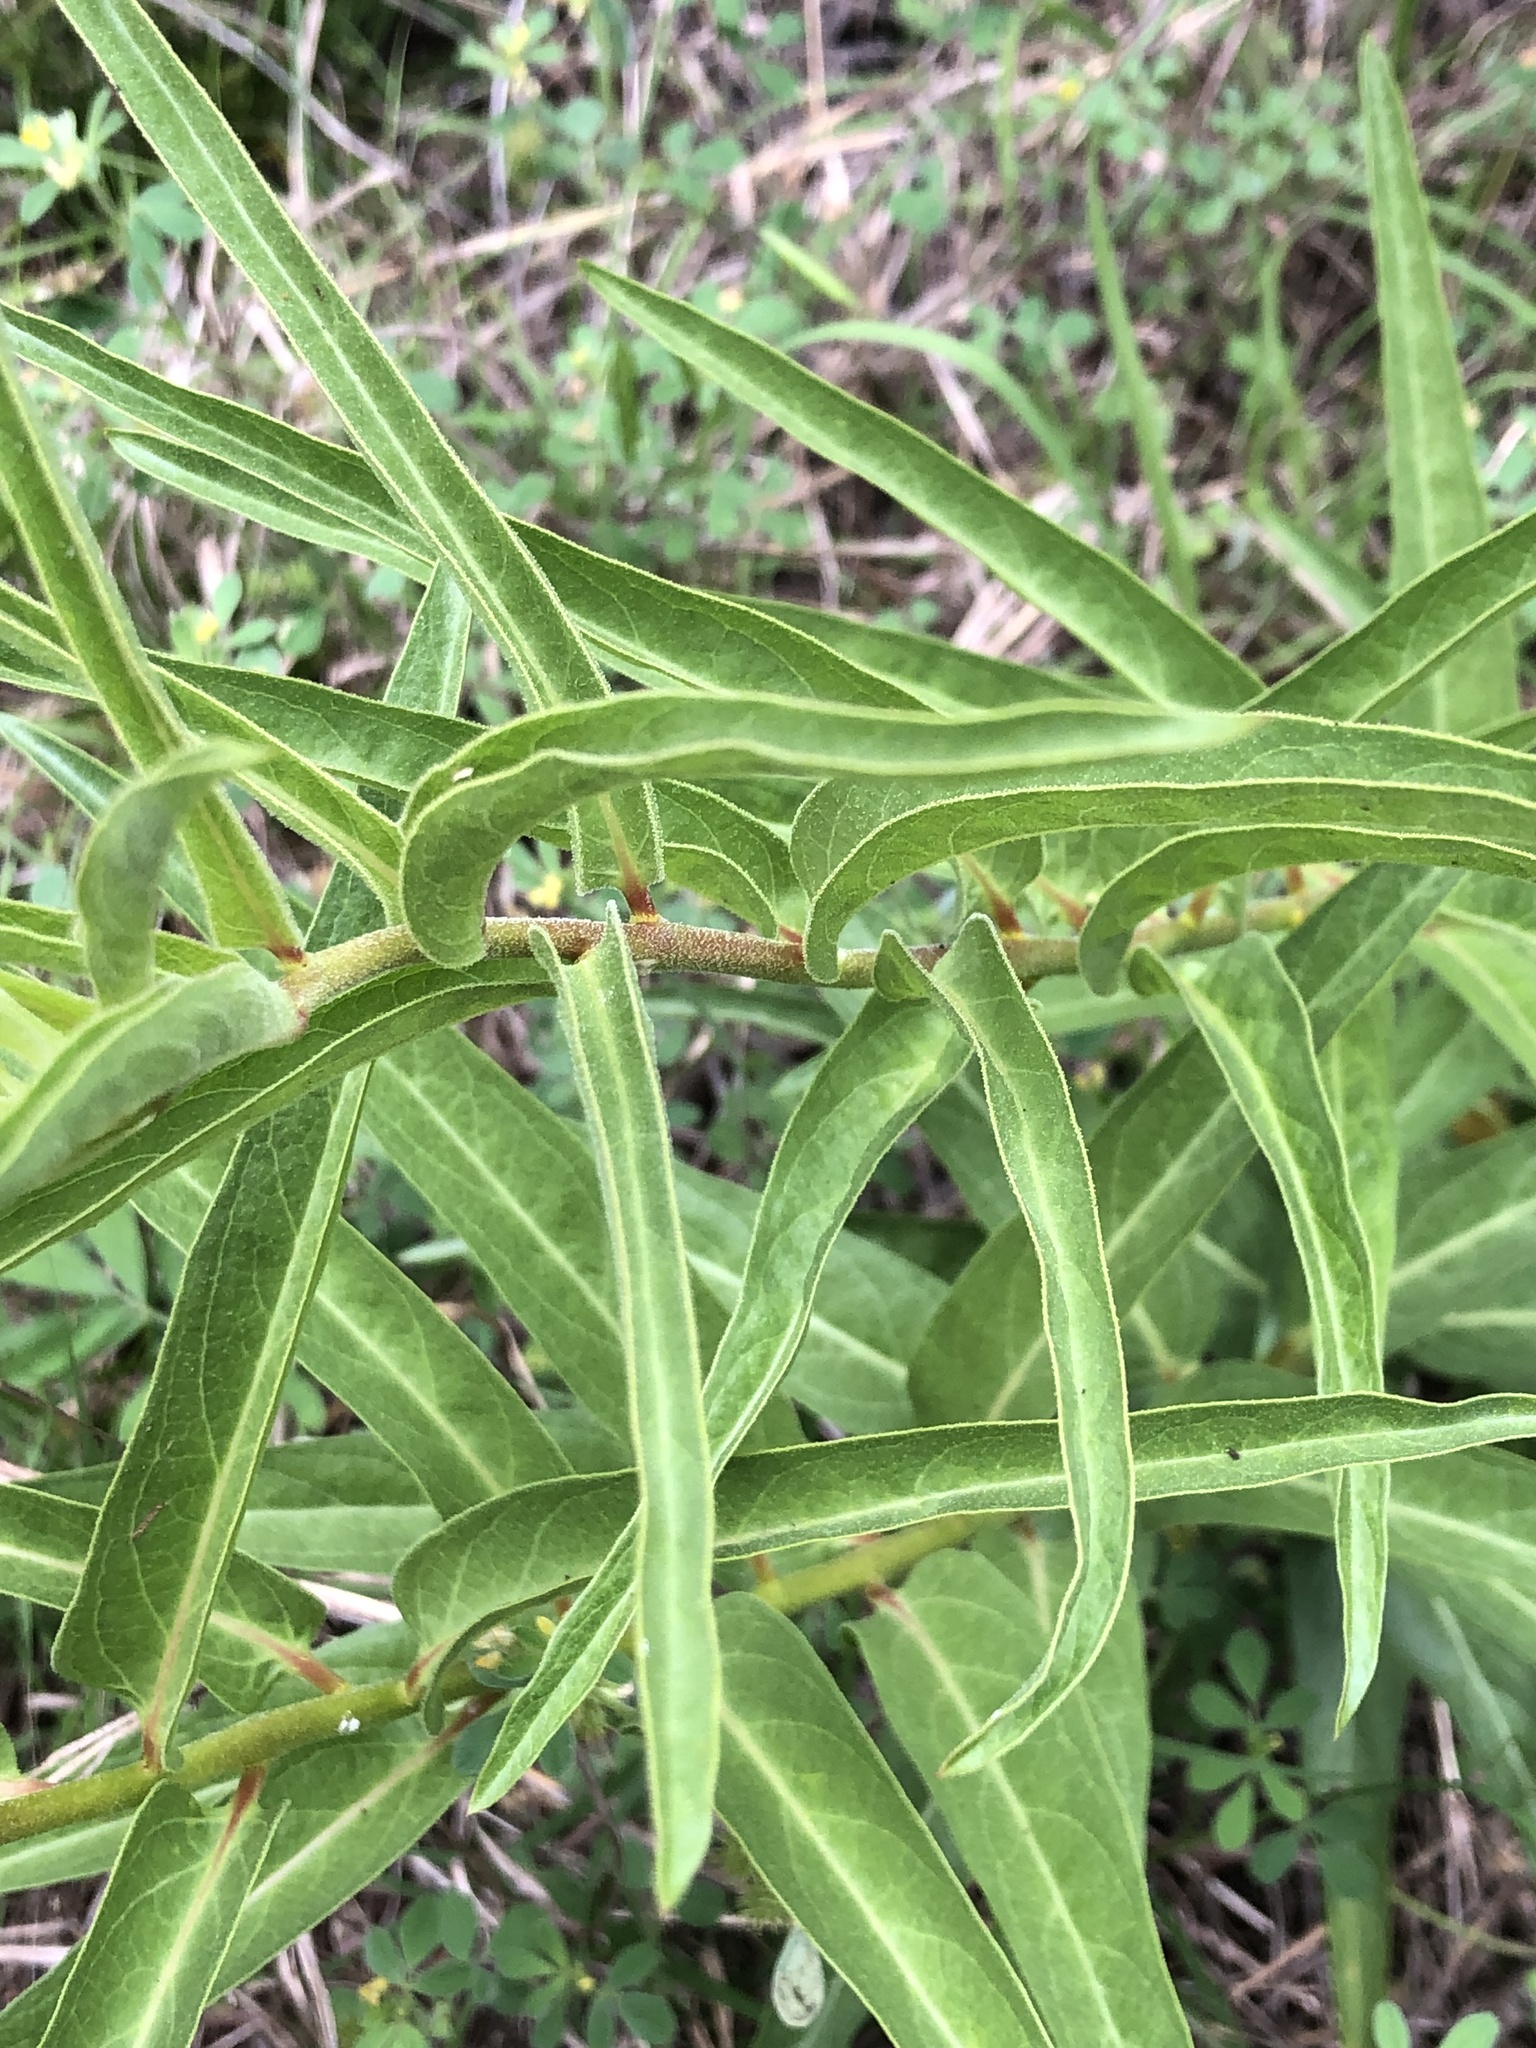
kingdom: Plantae
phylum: Tracheophyta
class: Magnoliopsida
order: Gentianales
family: Apocynaceae
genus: Asclepias
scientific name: Asclepias asperula
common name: Antelope horns
